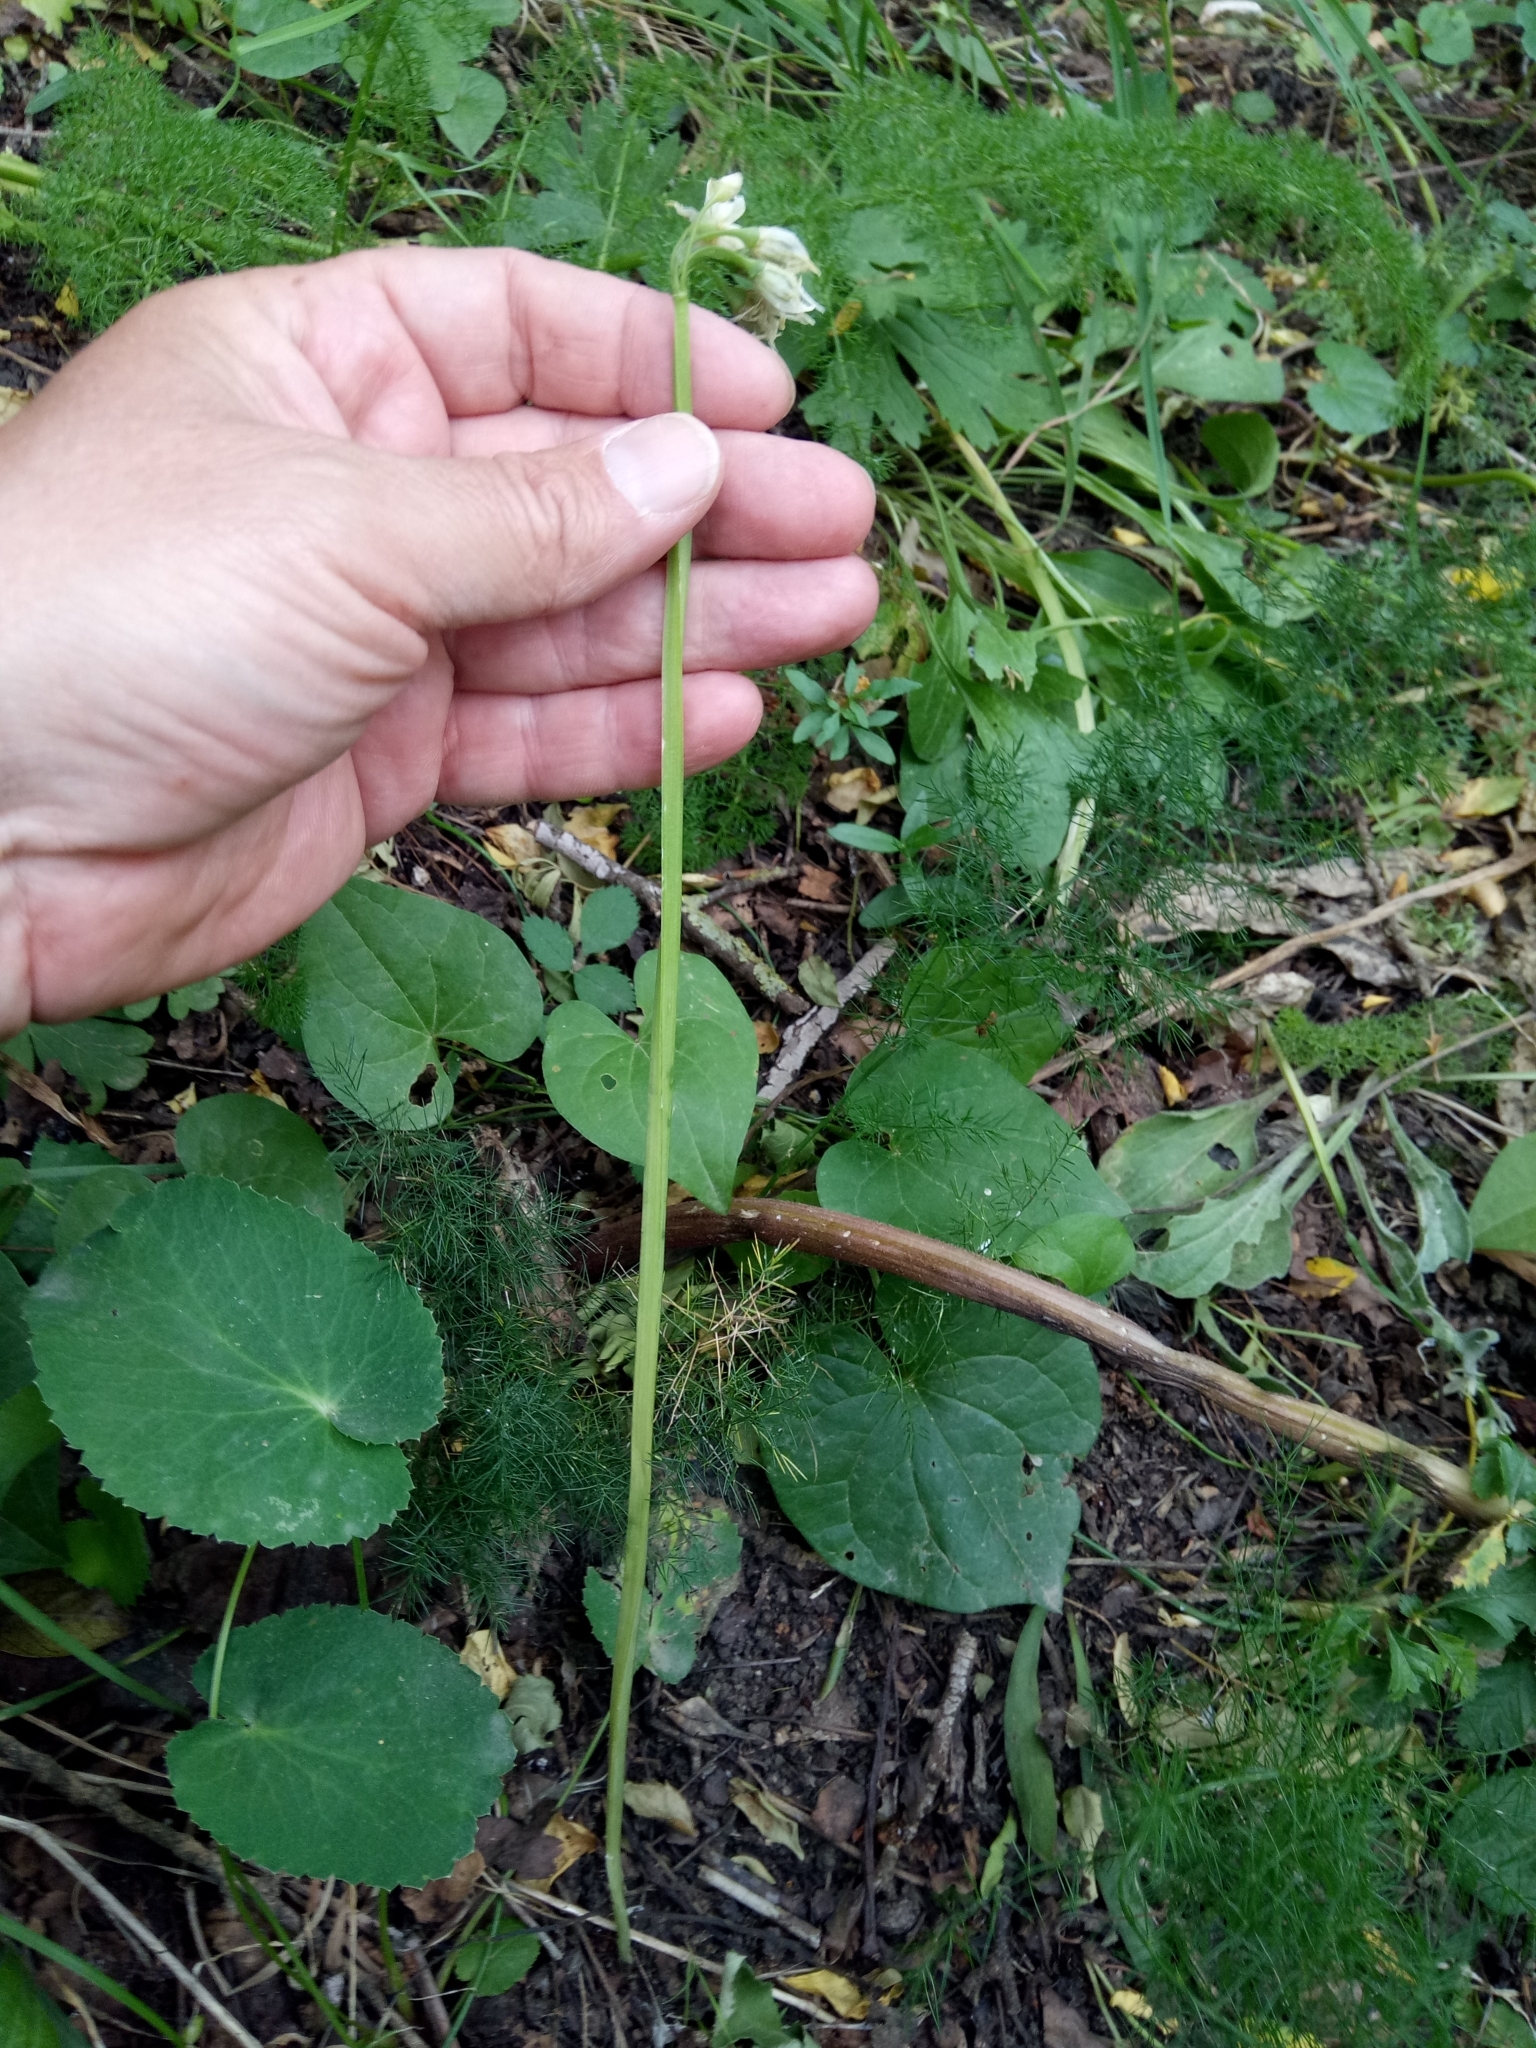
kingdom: Plantae
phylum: Tracheophyta
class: Liliopsida
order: Asparagales
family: Amaryllidaceae
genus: Allium
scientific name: Allium triquetrum
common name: Three-cornered garlic
